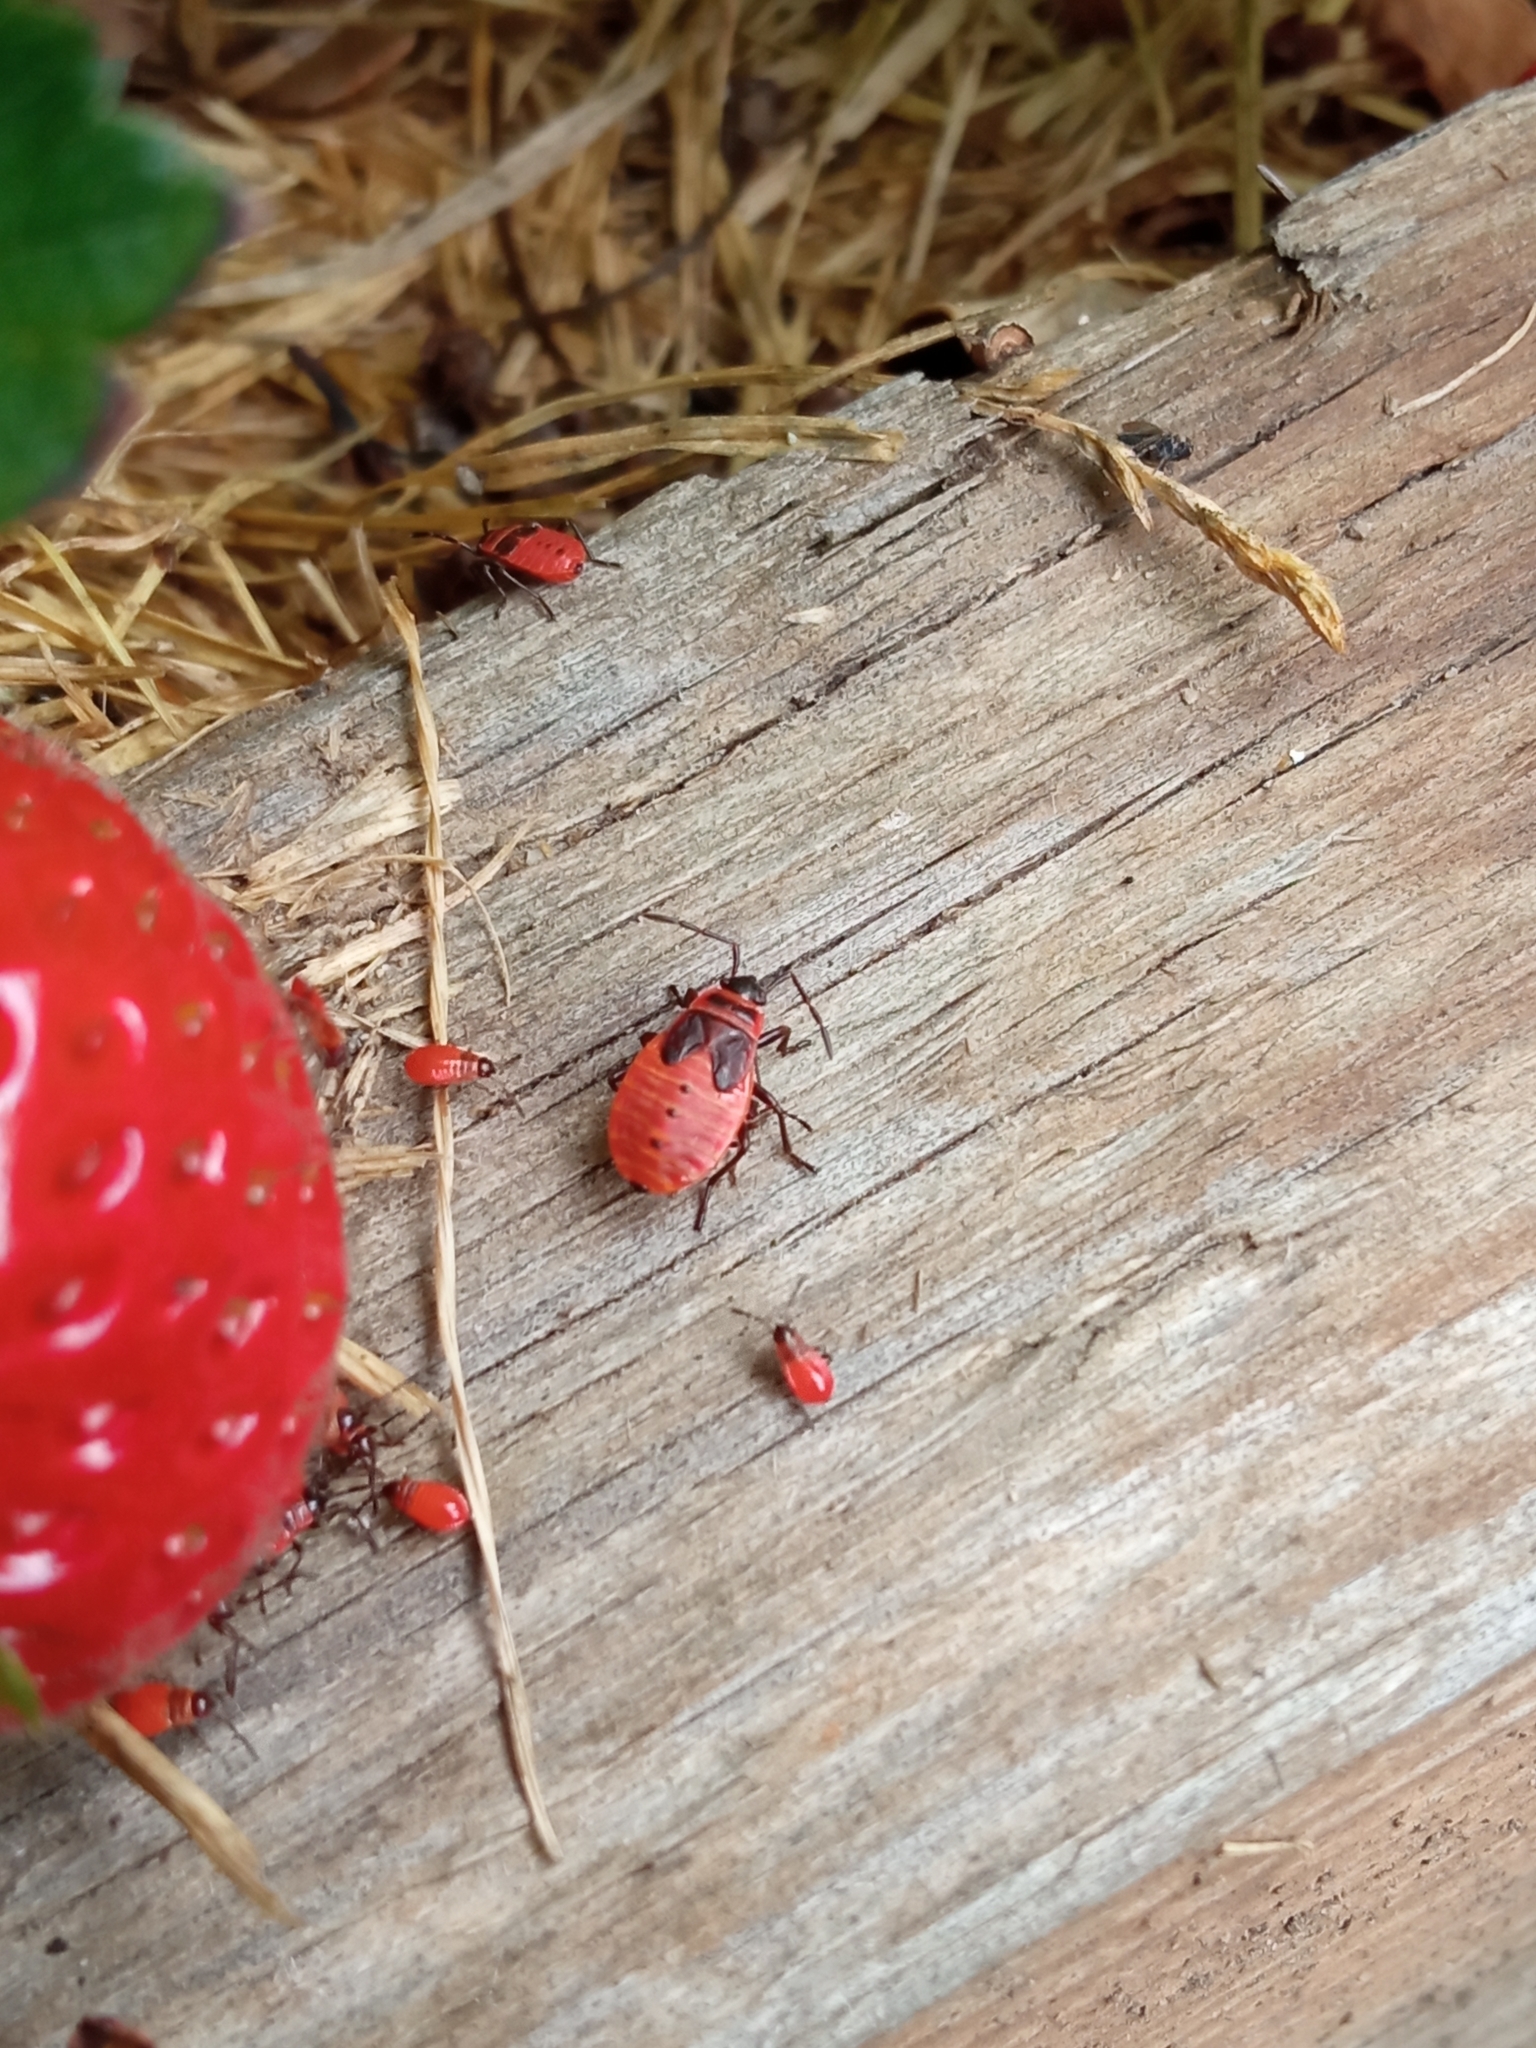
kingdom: Animalia
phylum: Arthropoda
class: Insecta
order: Hemiptera
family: Pyrrhocoridae
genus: Pyrrhocoris
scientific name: Pyrrhocoris apterus
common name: Firebug
